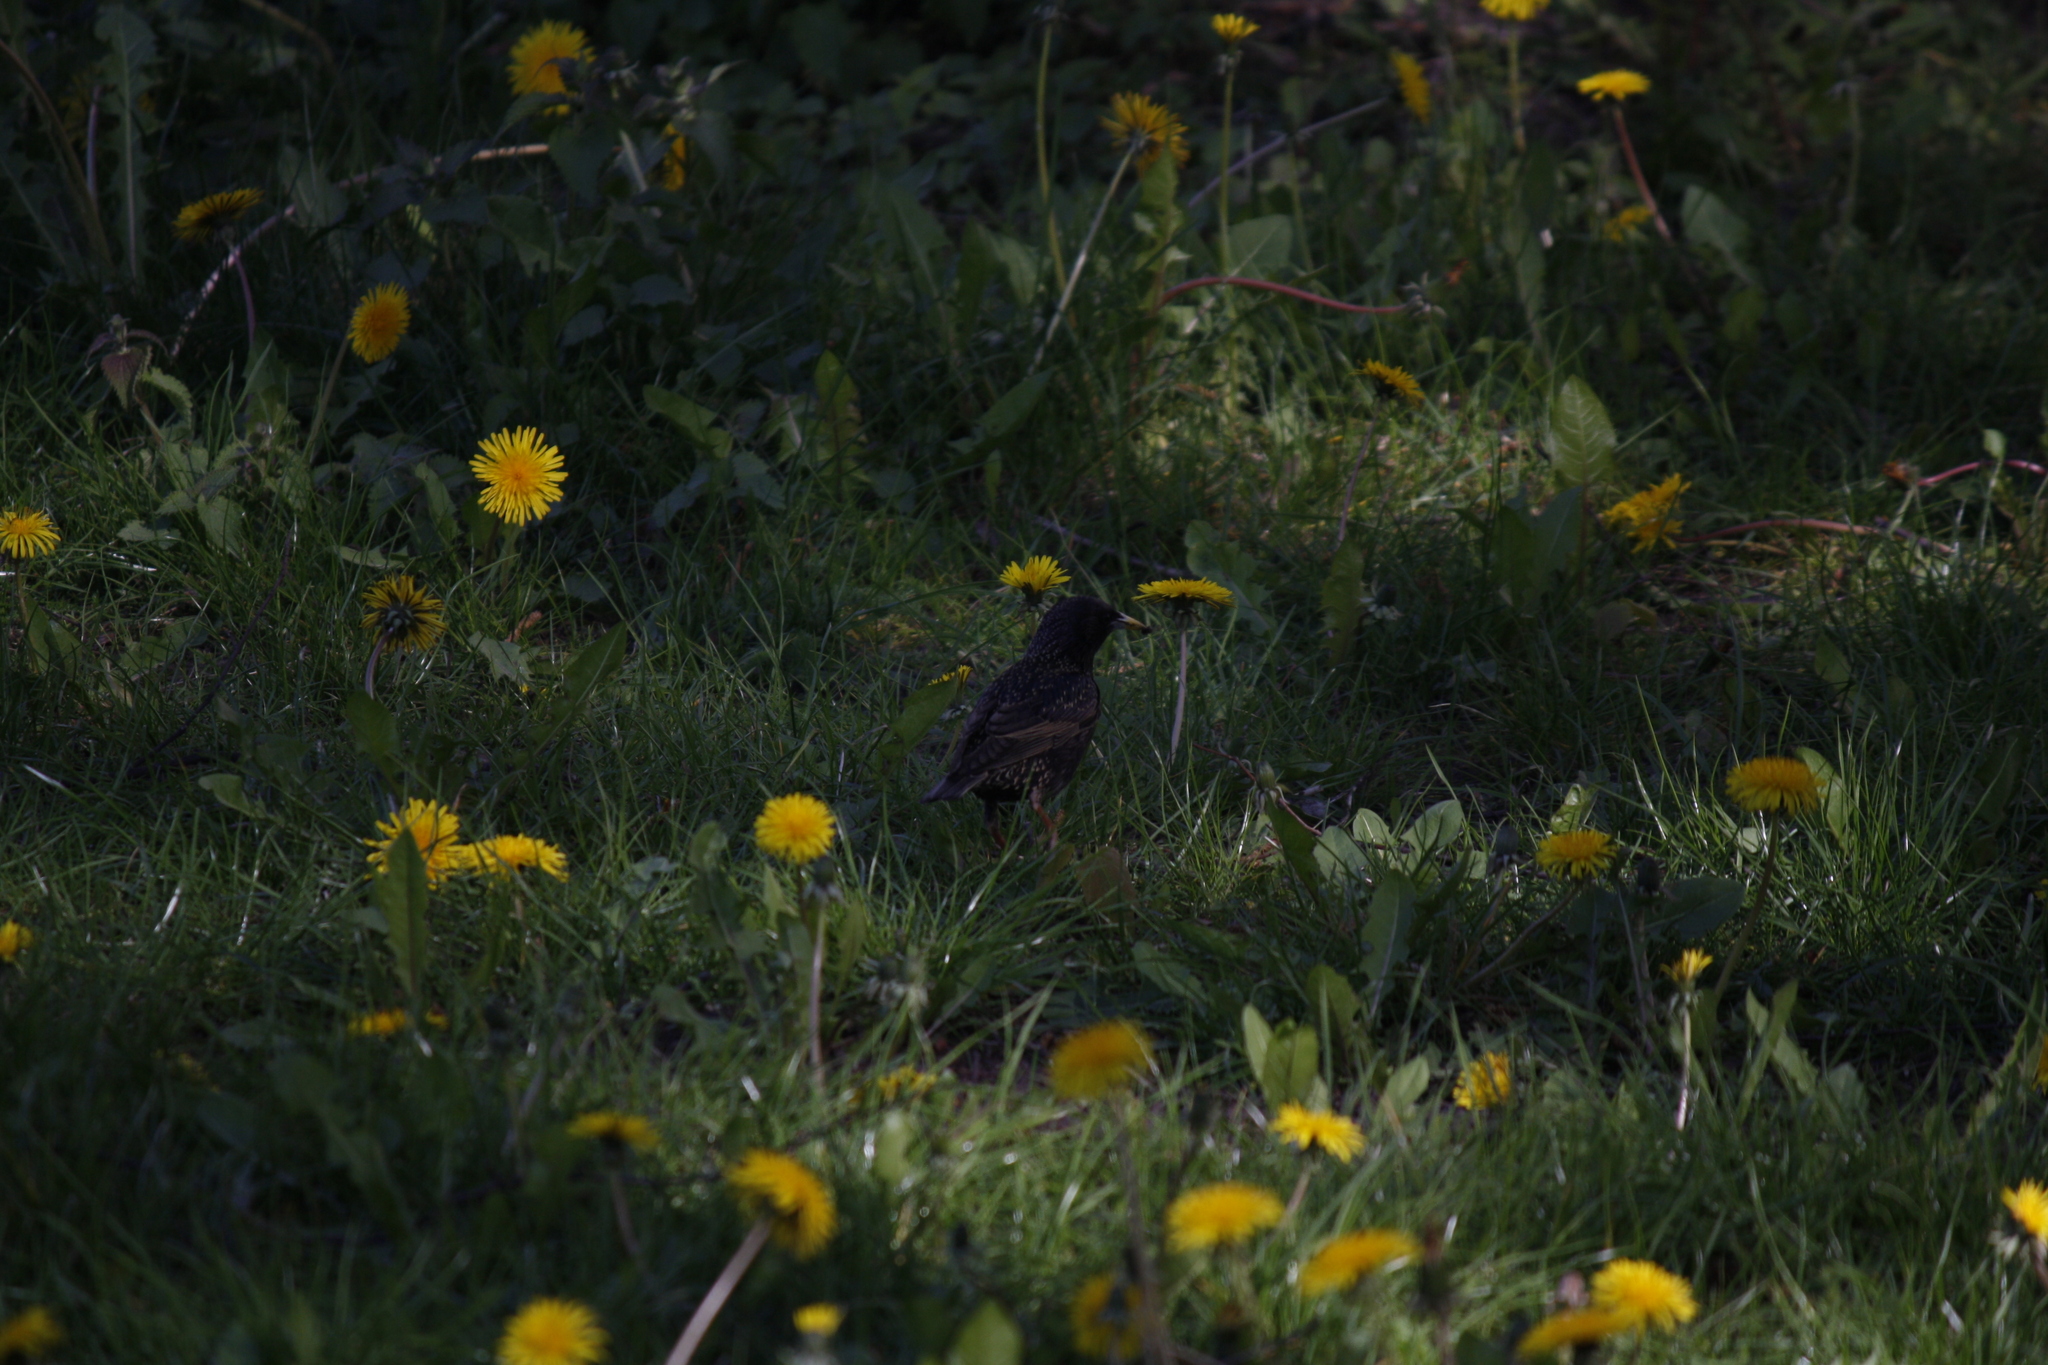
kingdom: Animalia
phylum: Chordata
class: Aves
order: Passeriformes
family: Sturnidae
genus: Sturnus
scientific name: Sturnus vulgaris
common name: Common starling
